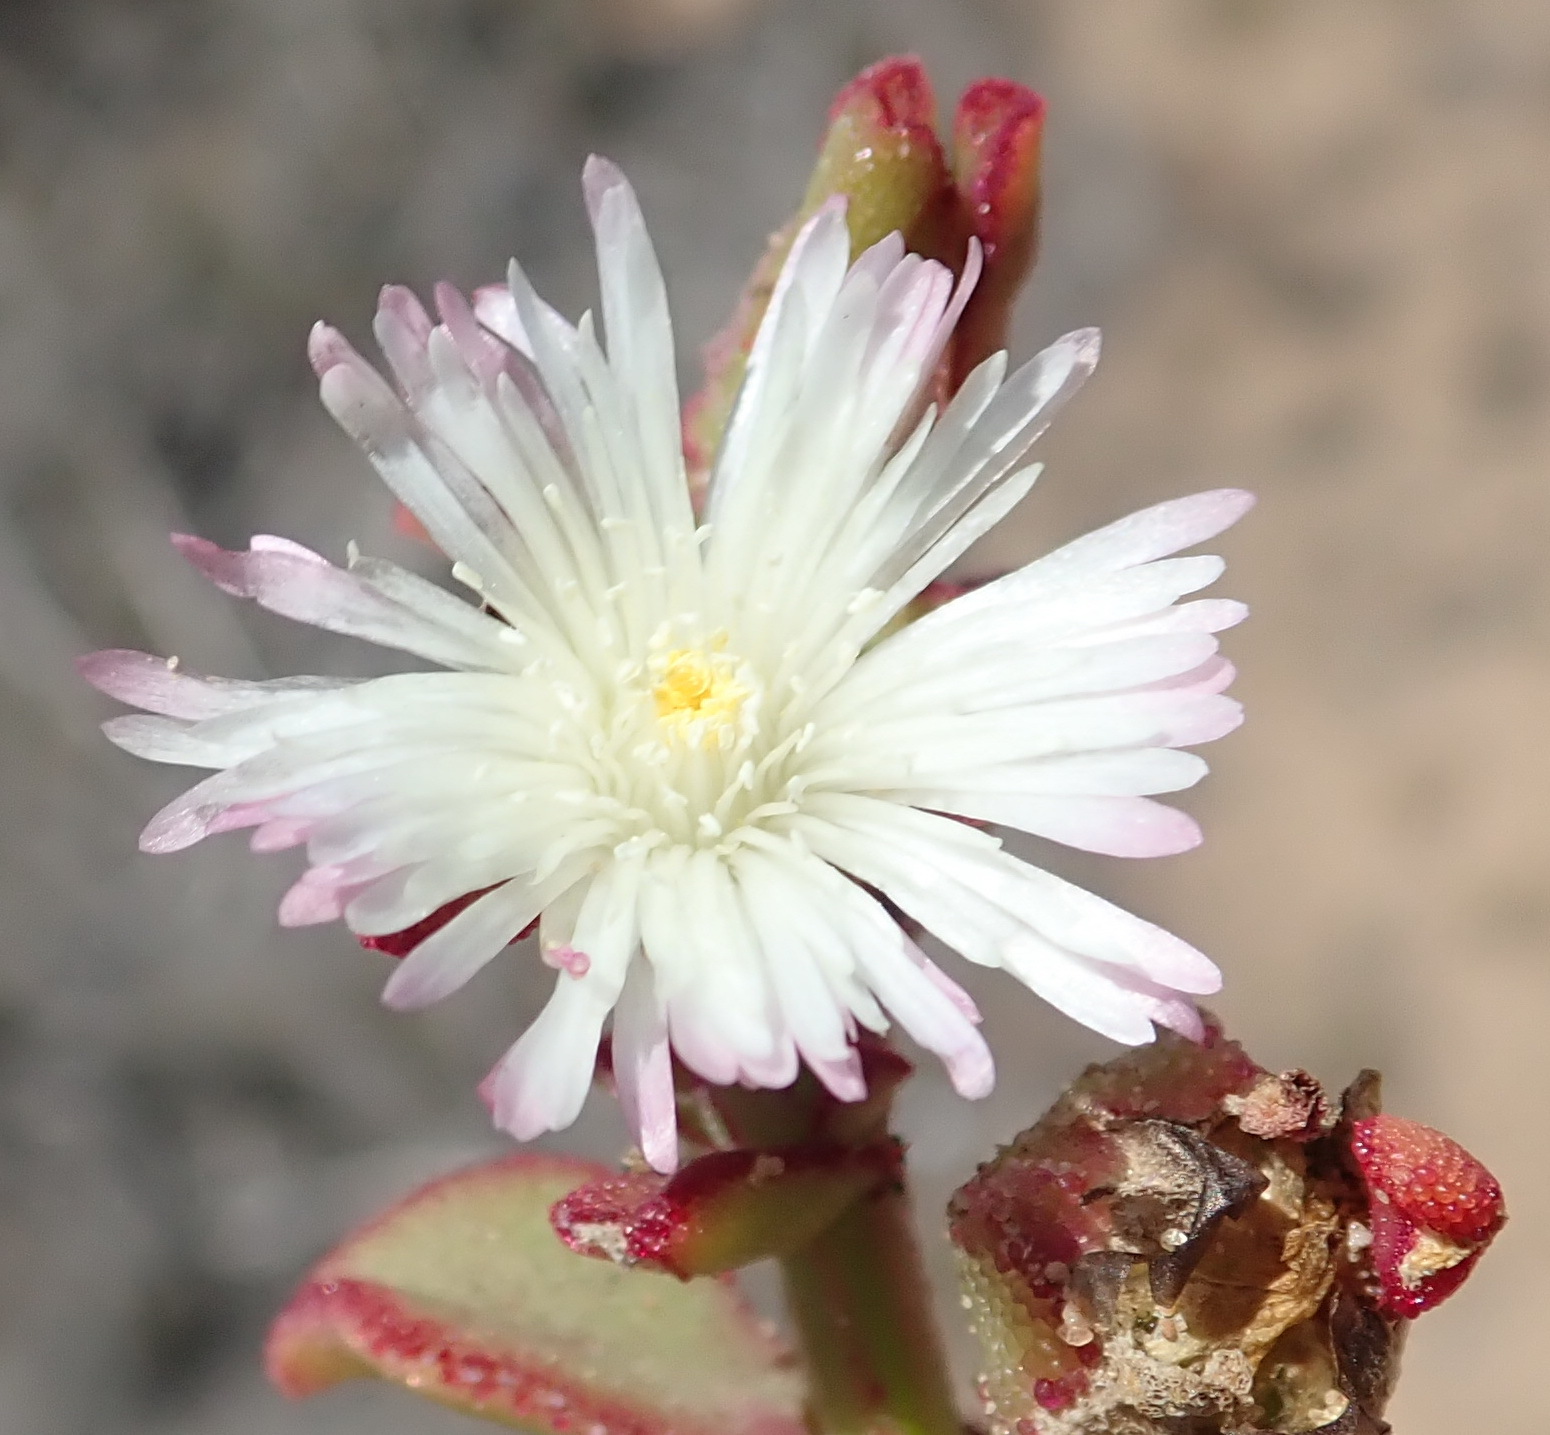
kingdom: Plantae
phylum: Tracheophyta
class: Magnoliopsida
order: Caryophyllales
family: Aizoaceae
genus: Mesembryanthemum
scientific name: Mesembryanthemum aitonis
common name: Angled iceplant
